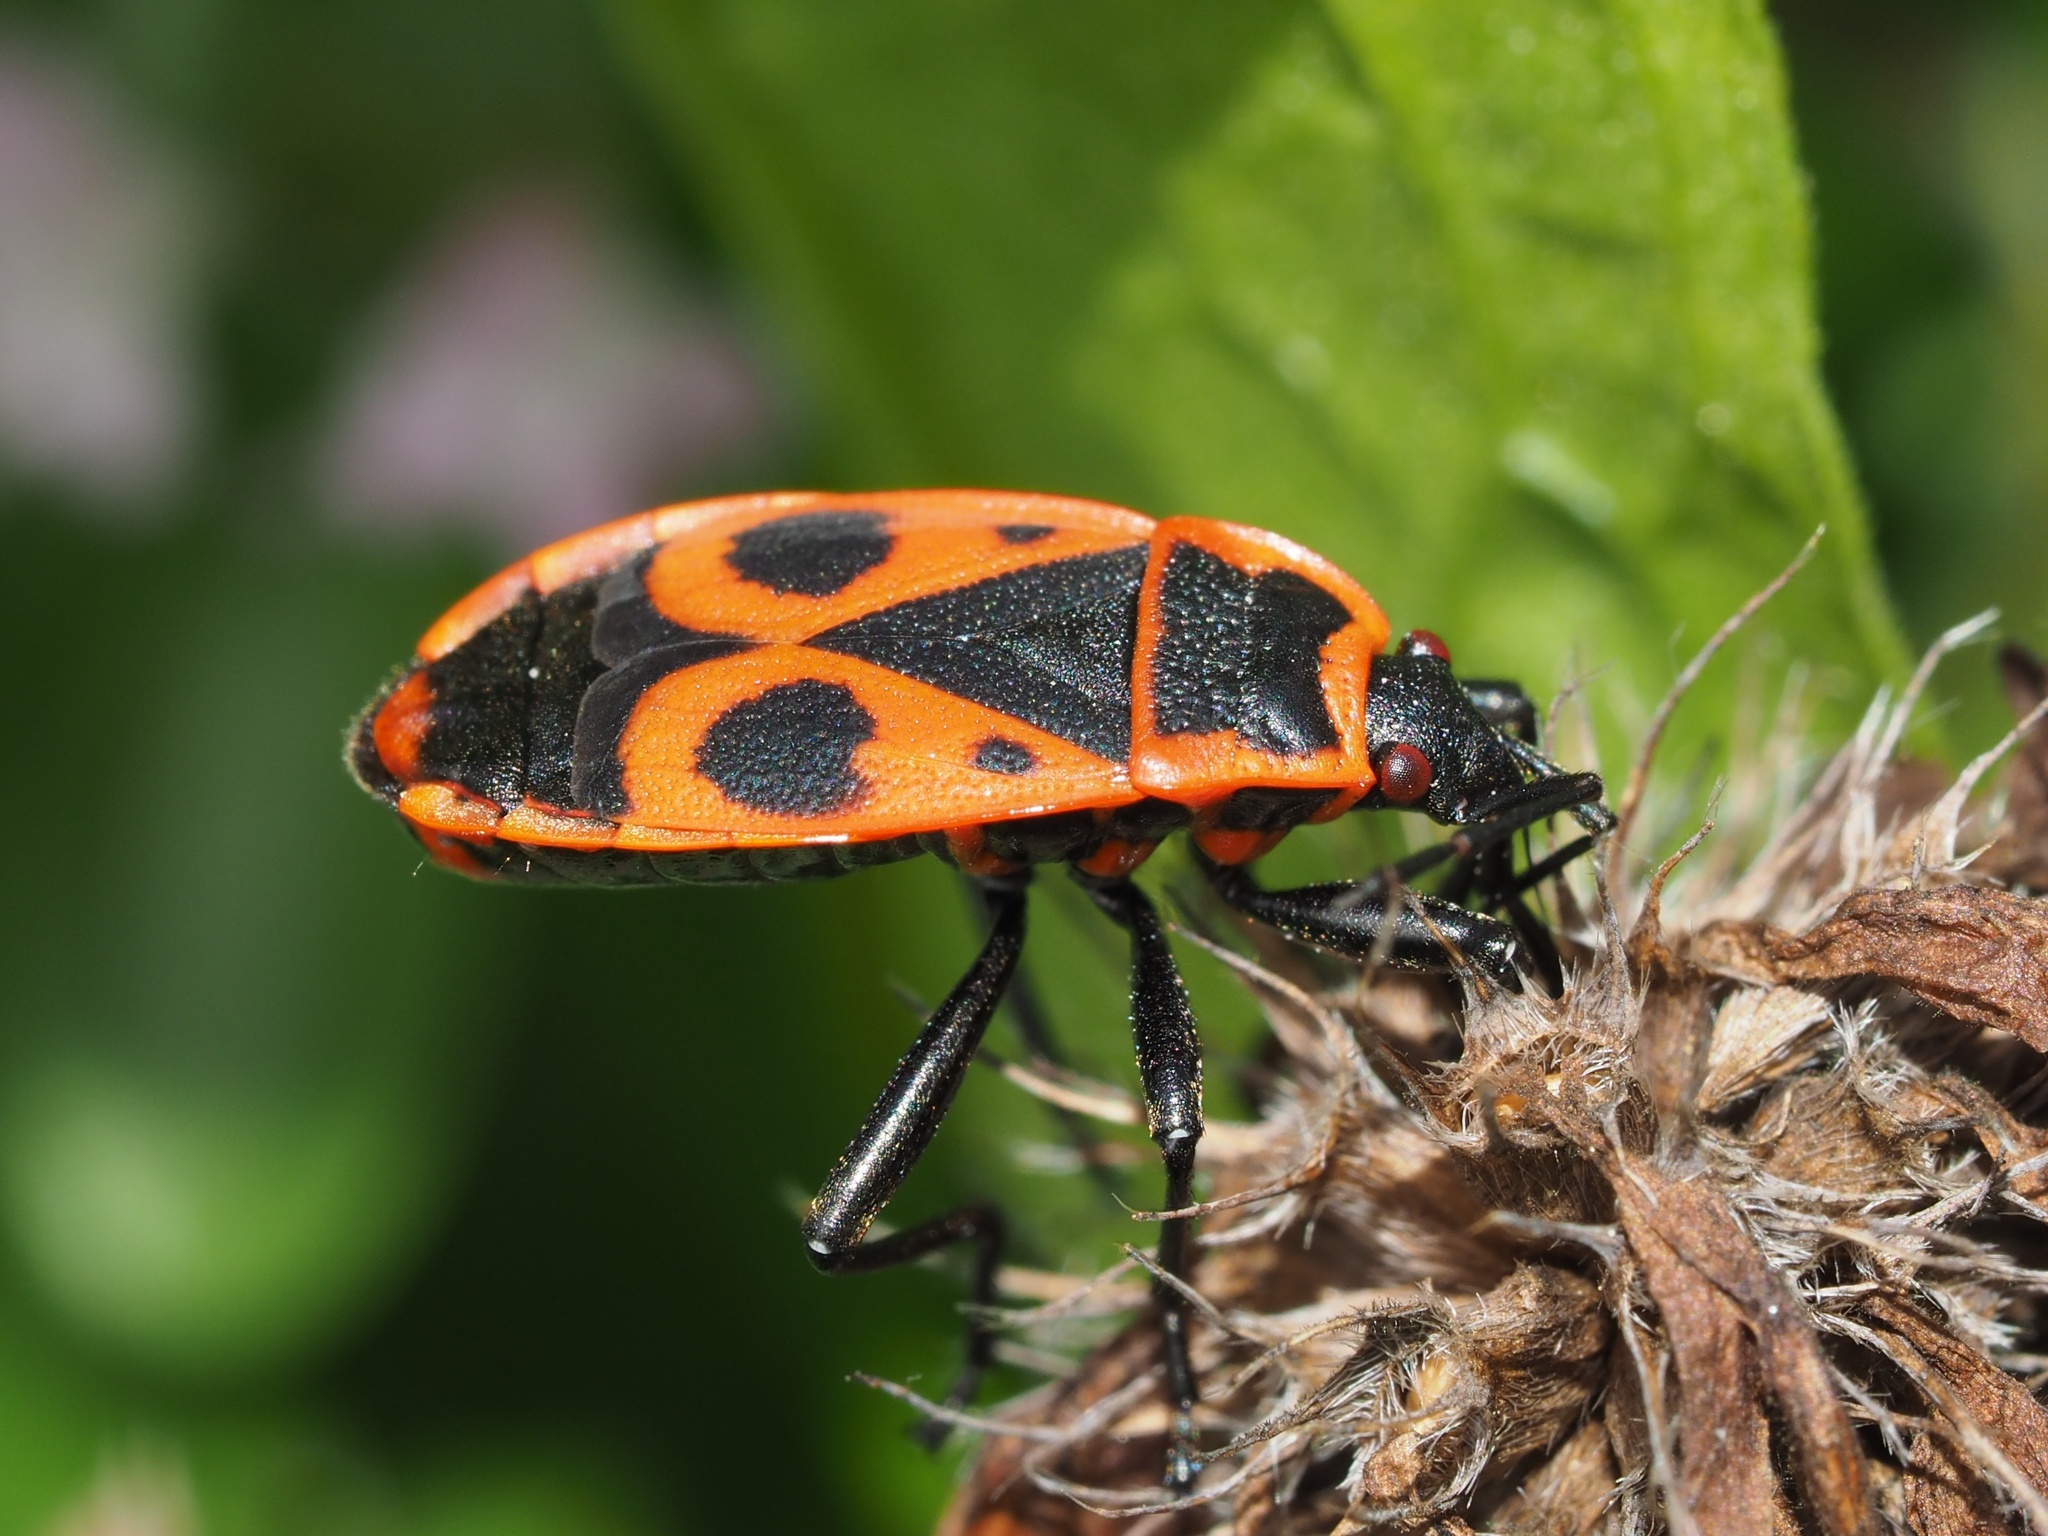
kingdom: Animalia
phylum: Arthropoda
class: Insecta
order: Hemiptera
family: Pyrrhocoridae
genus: Pyrrhocoris
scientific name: Pyrrhocoris apterus
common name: Firebug
